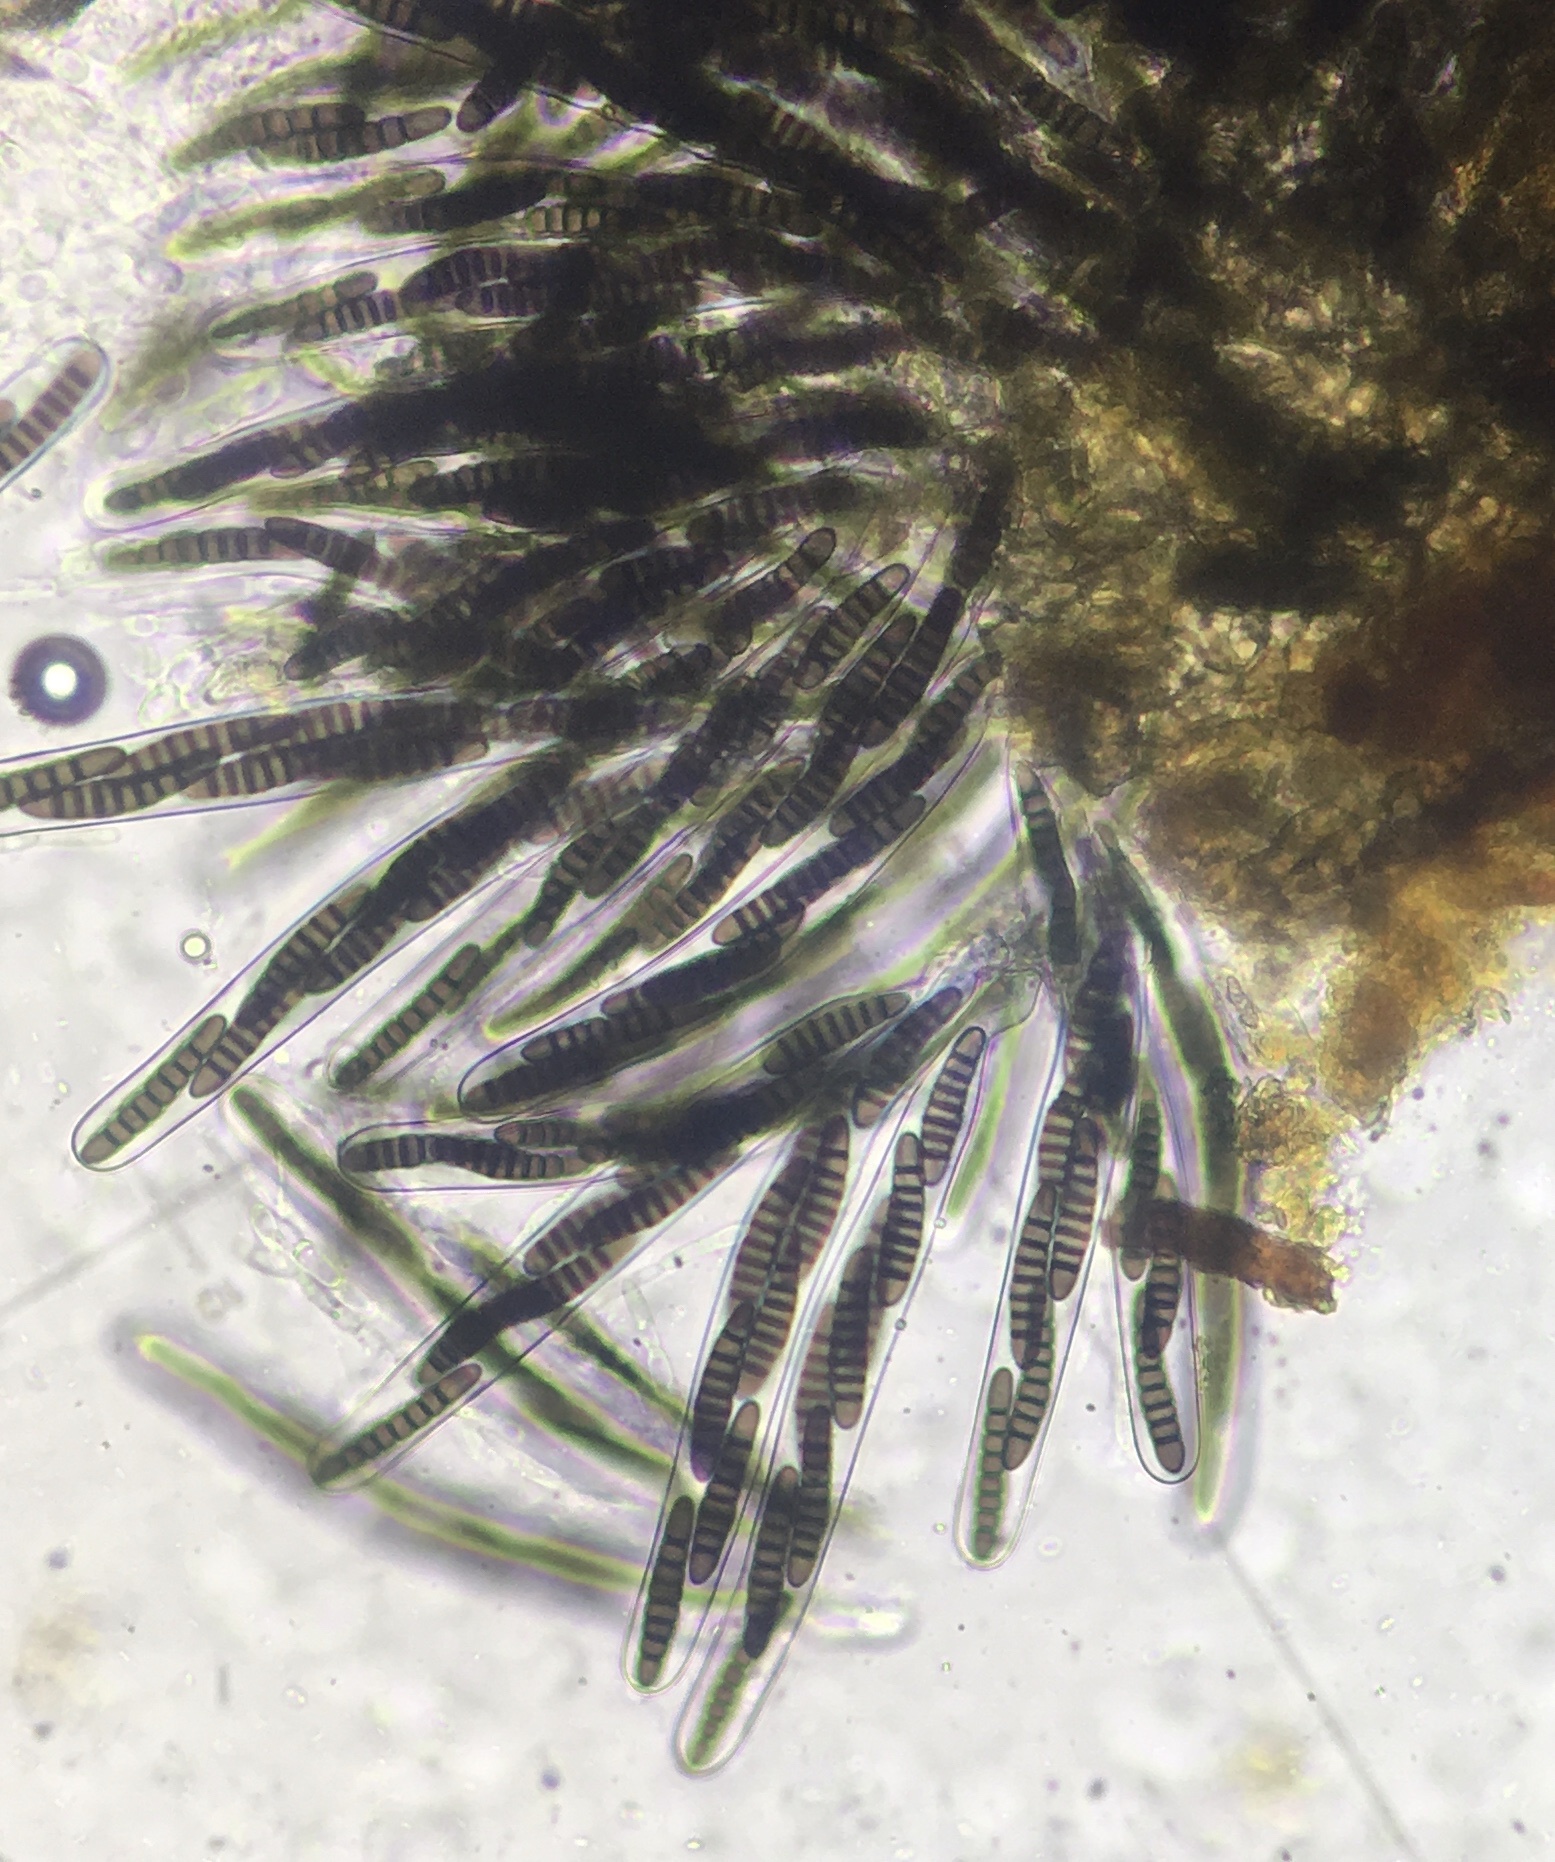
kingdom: Fungi
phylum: Ascomycota
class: Dothideomycetes
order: Pleosporales
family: Sporormiaceae
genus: Preussia
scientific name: Preussia minipascua
